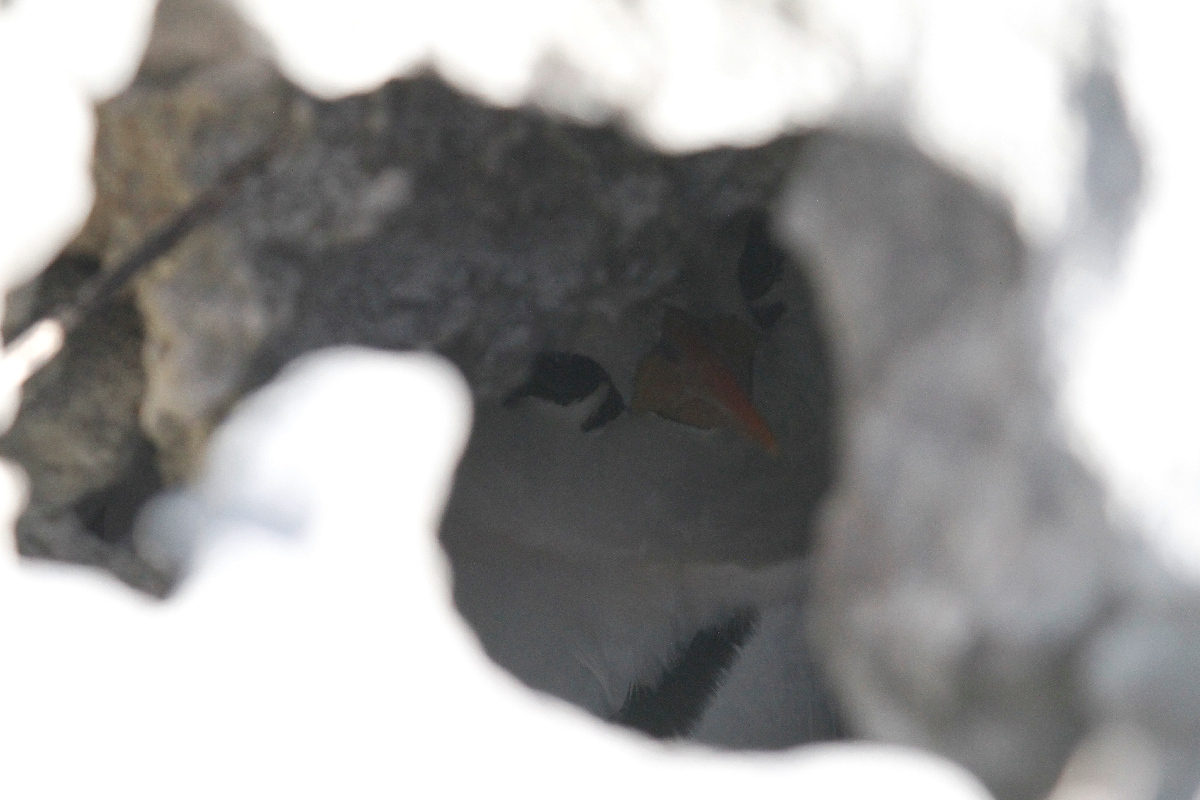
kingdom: Animalia
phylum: Chordata
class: Aves
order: Phaethontiformes
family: Phaethontidae
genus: Phaethon
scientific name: Phaethon lepturus
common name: White-tailed tropicbird
